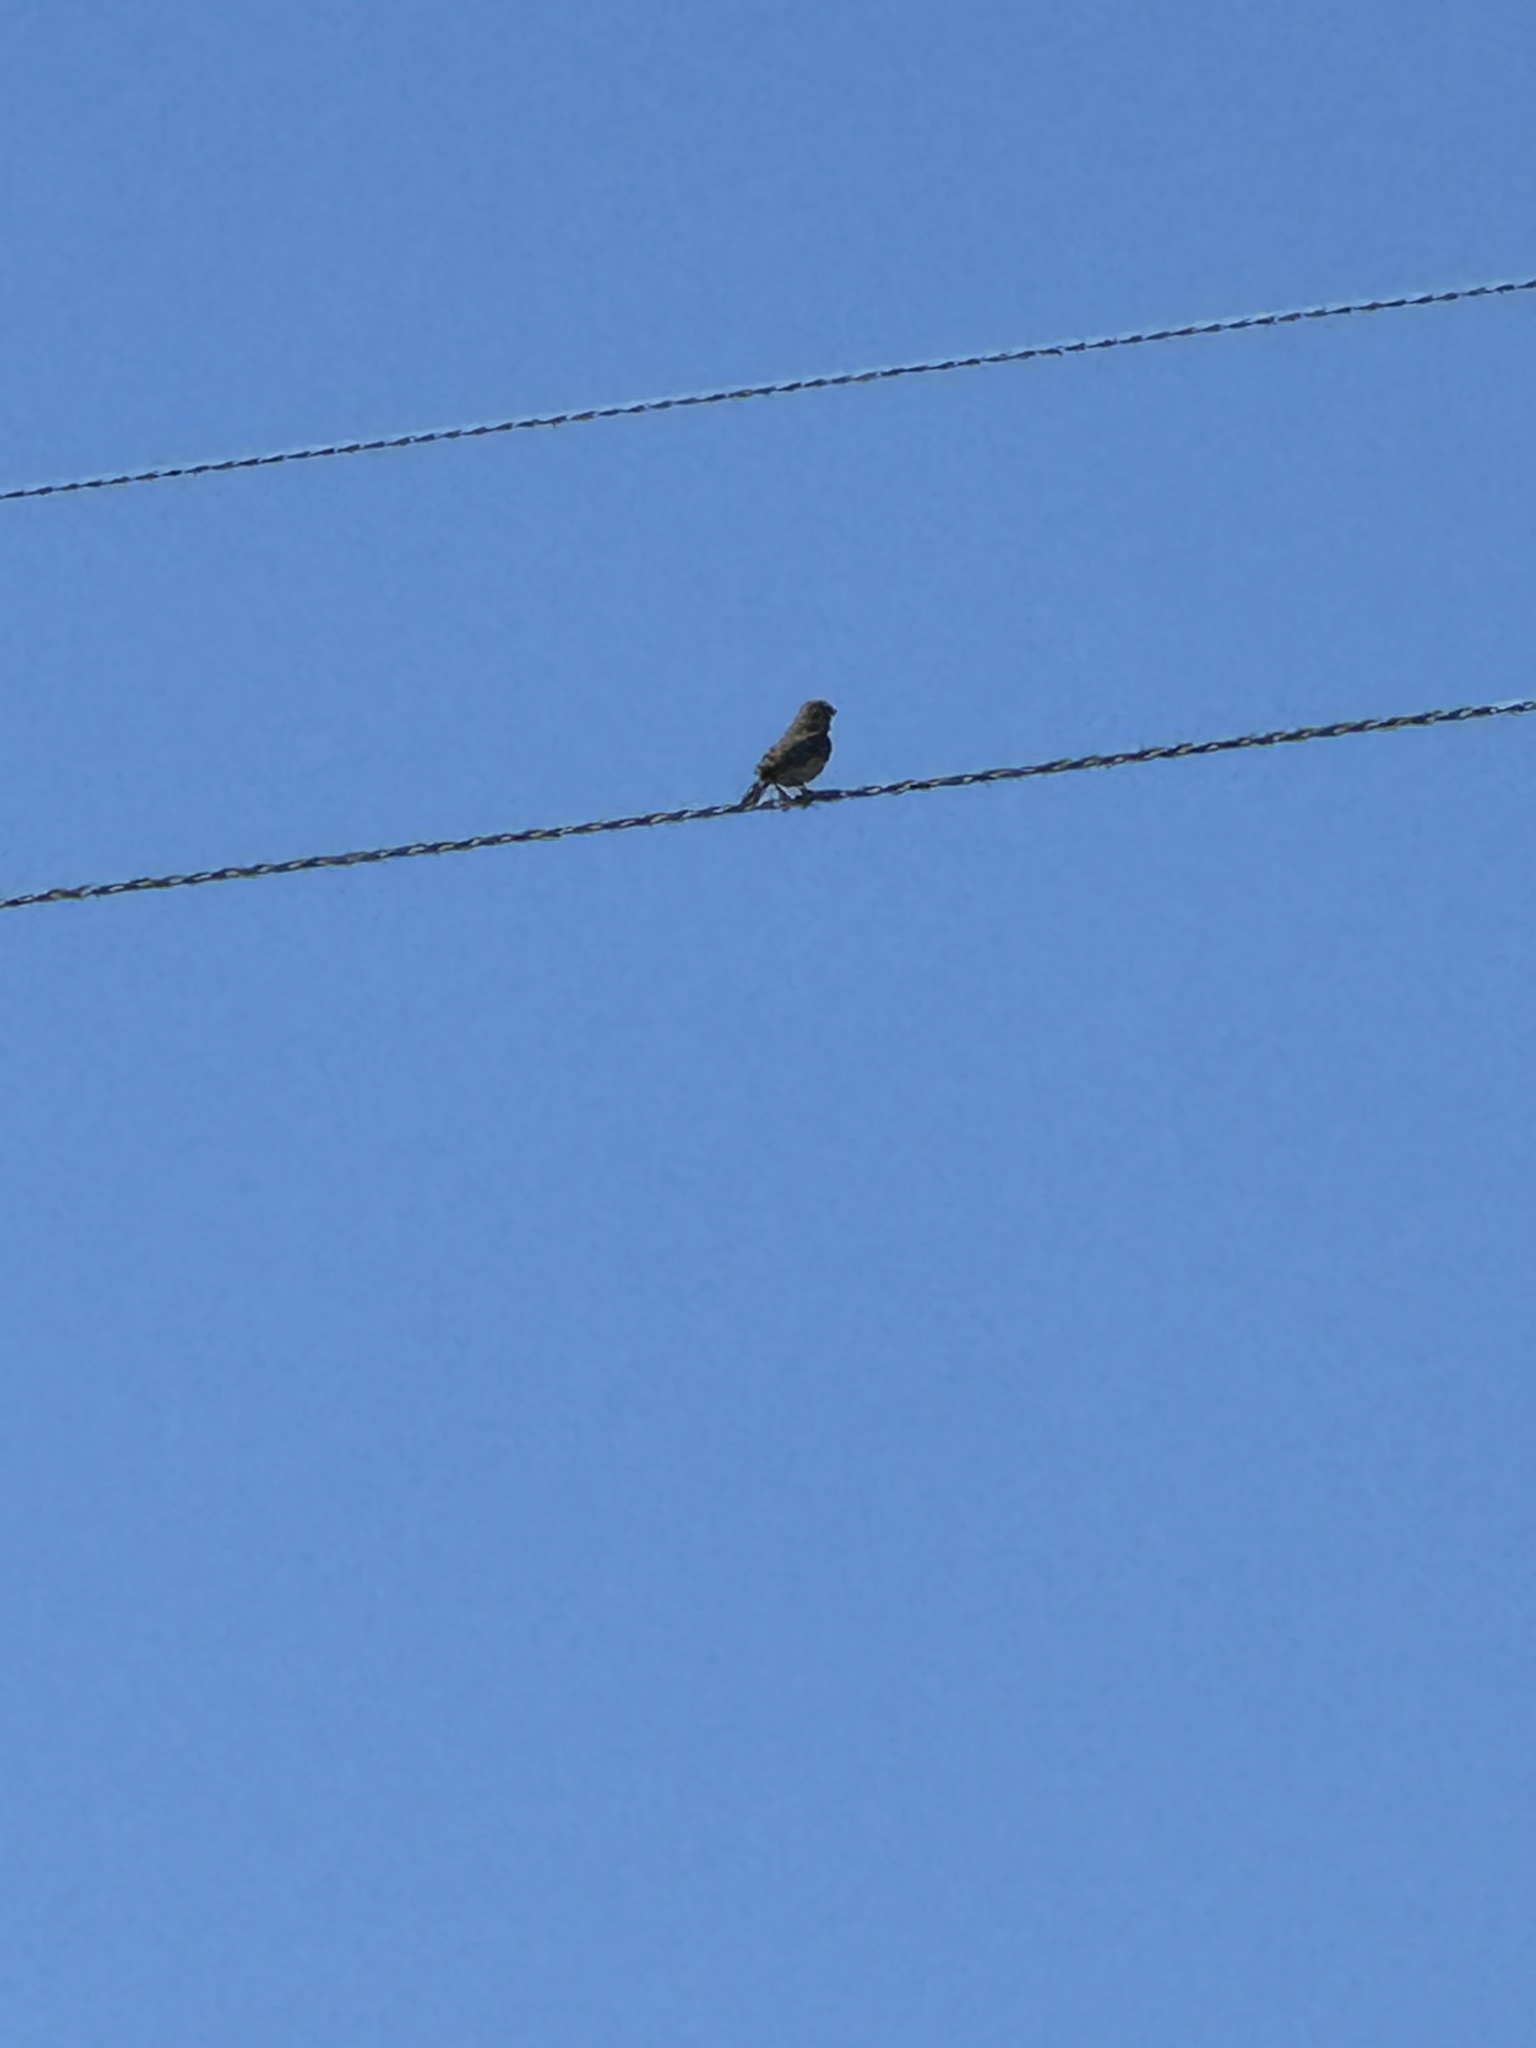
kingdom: Animalia
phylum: Chordata
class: Aves
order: Columbiformes
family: Columbidae
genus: Zenaida
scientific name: Zenaida macroura
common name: Mourning dove
